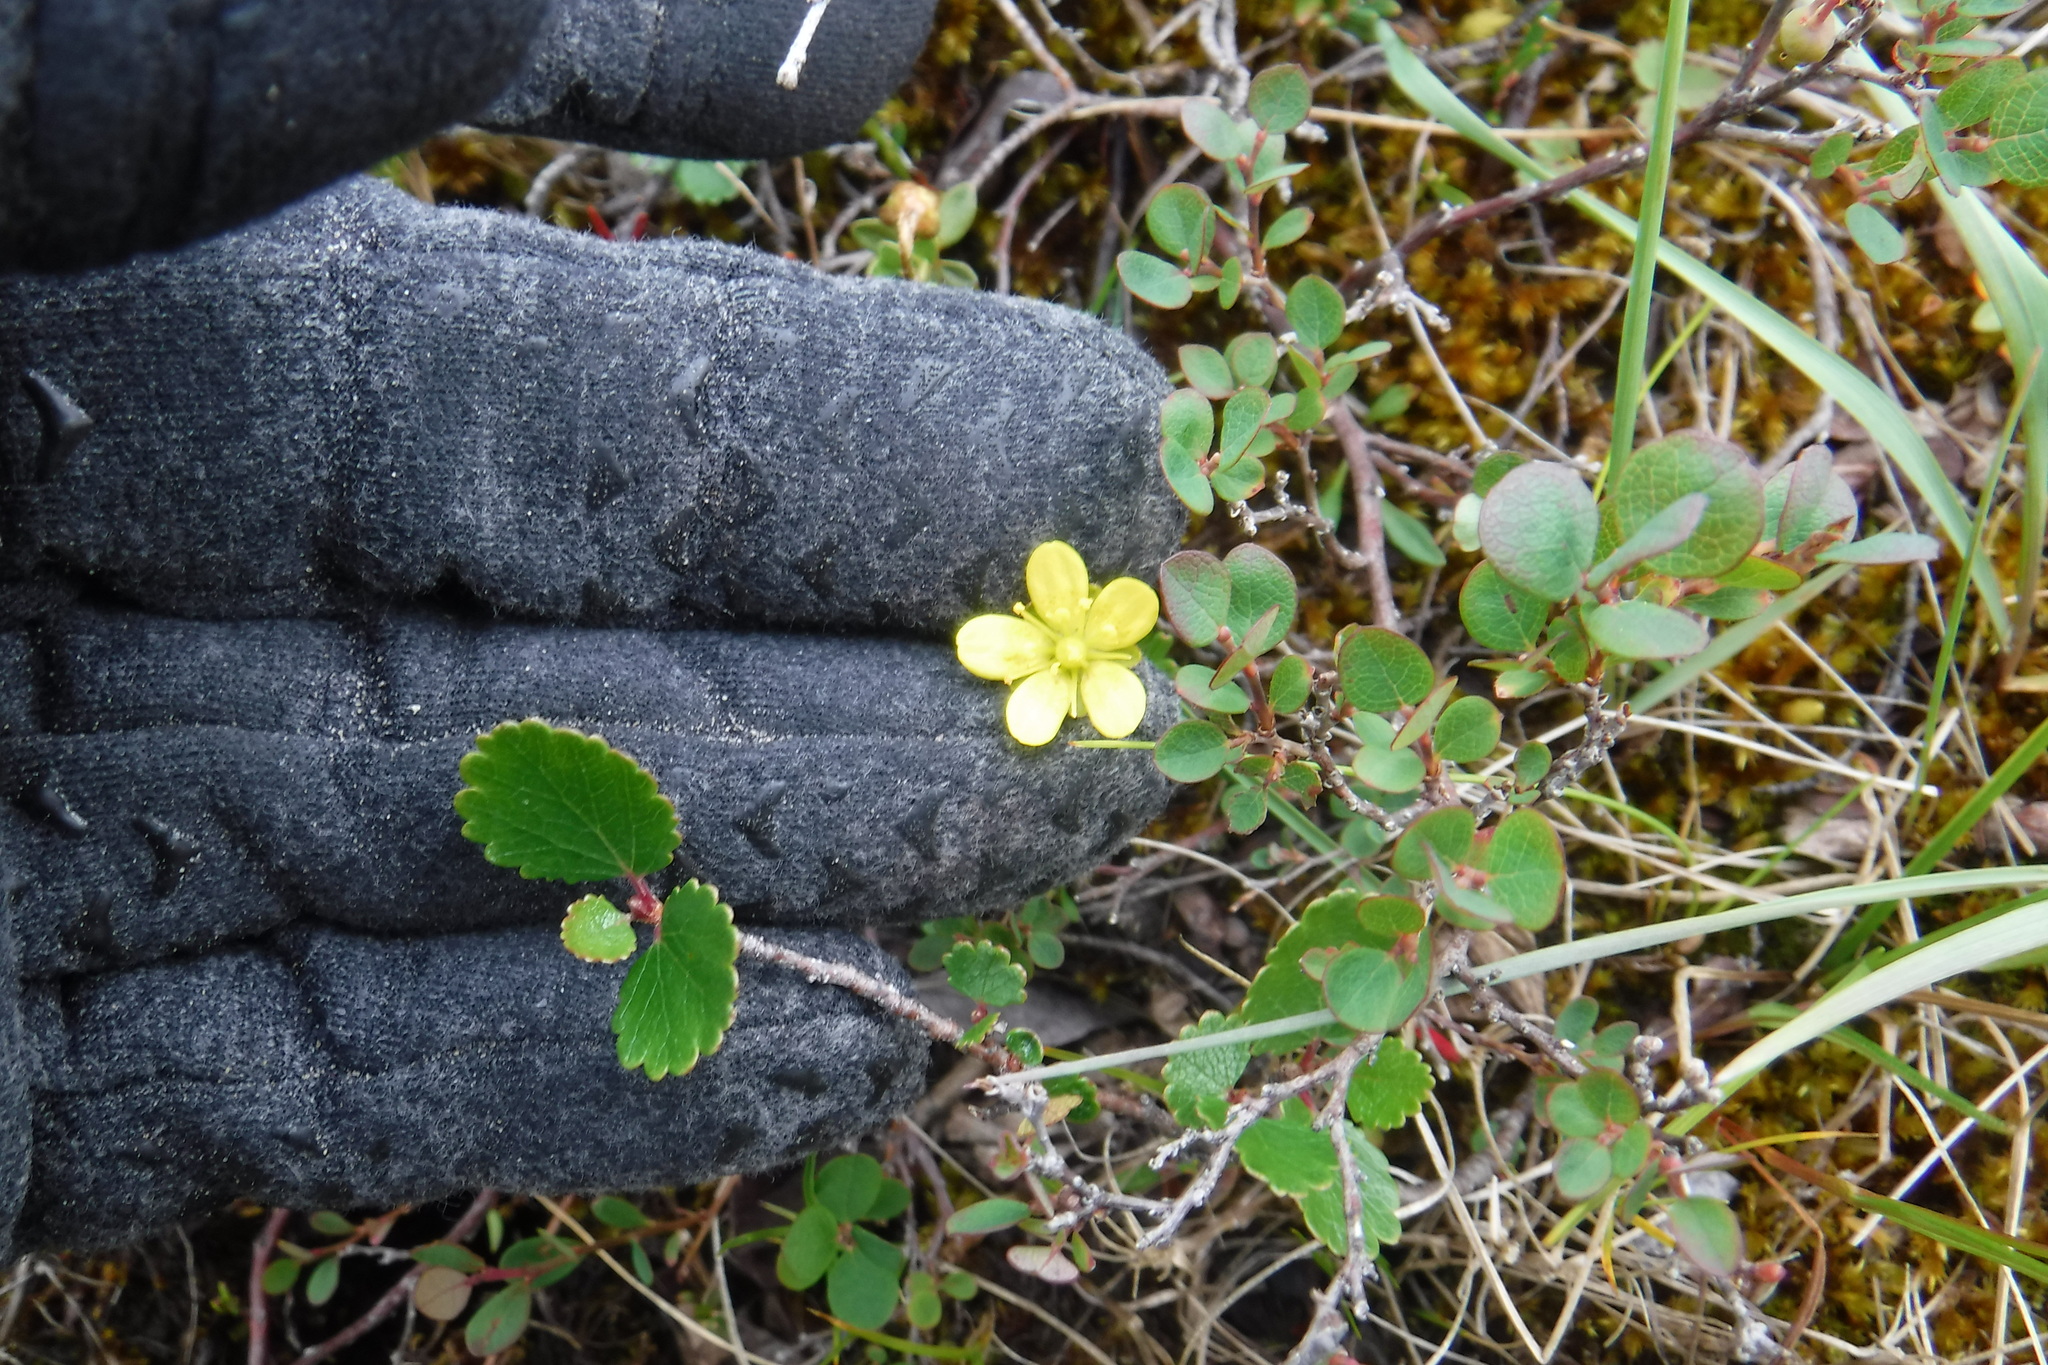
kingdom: Plantae
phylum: Tracheophyta
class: Magnoliopsida
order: Saxifragales
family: Saxifragaceae
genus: Saxifraga
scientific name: Saxifraga hirculus
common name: Yellow marsh saxifrage
